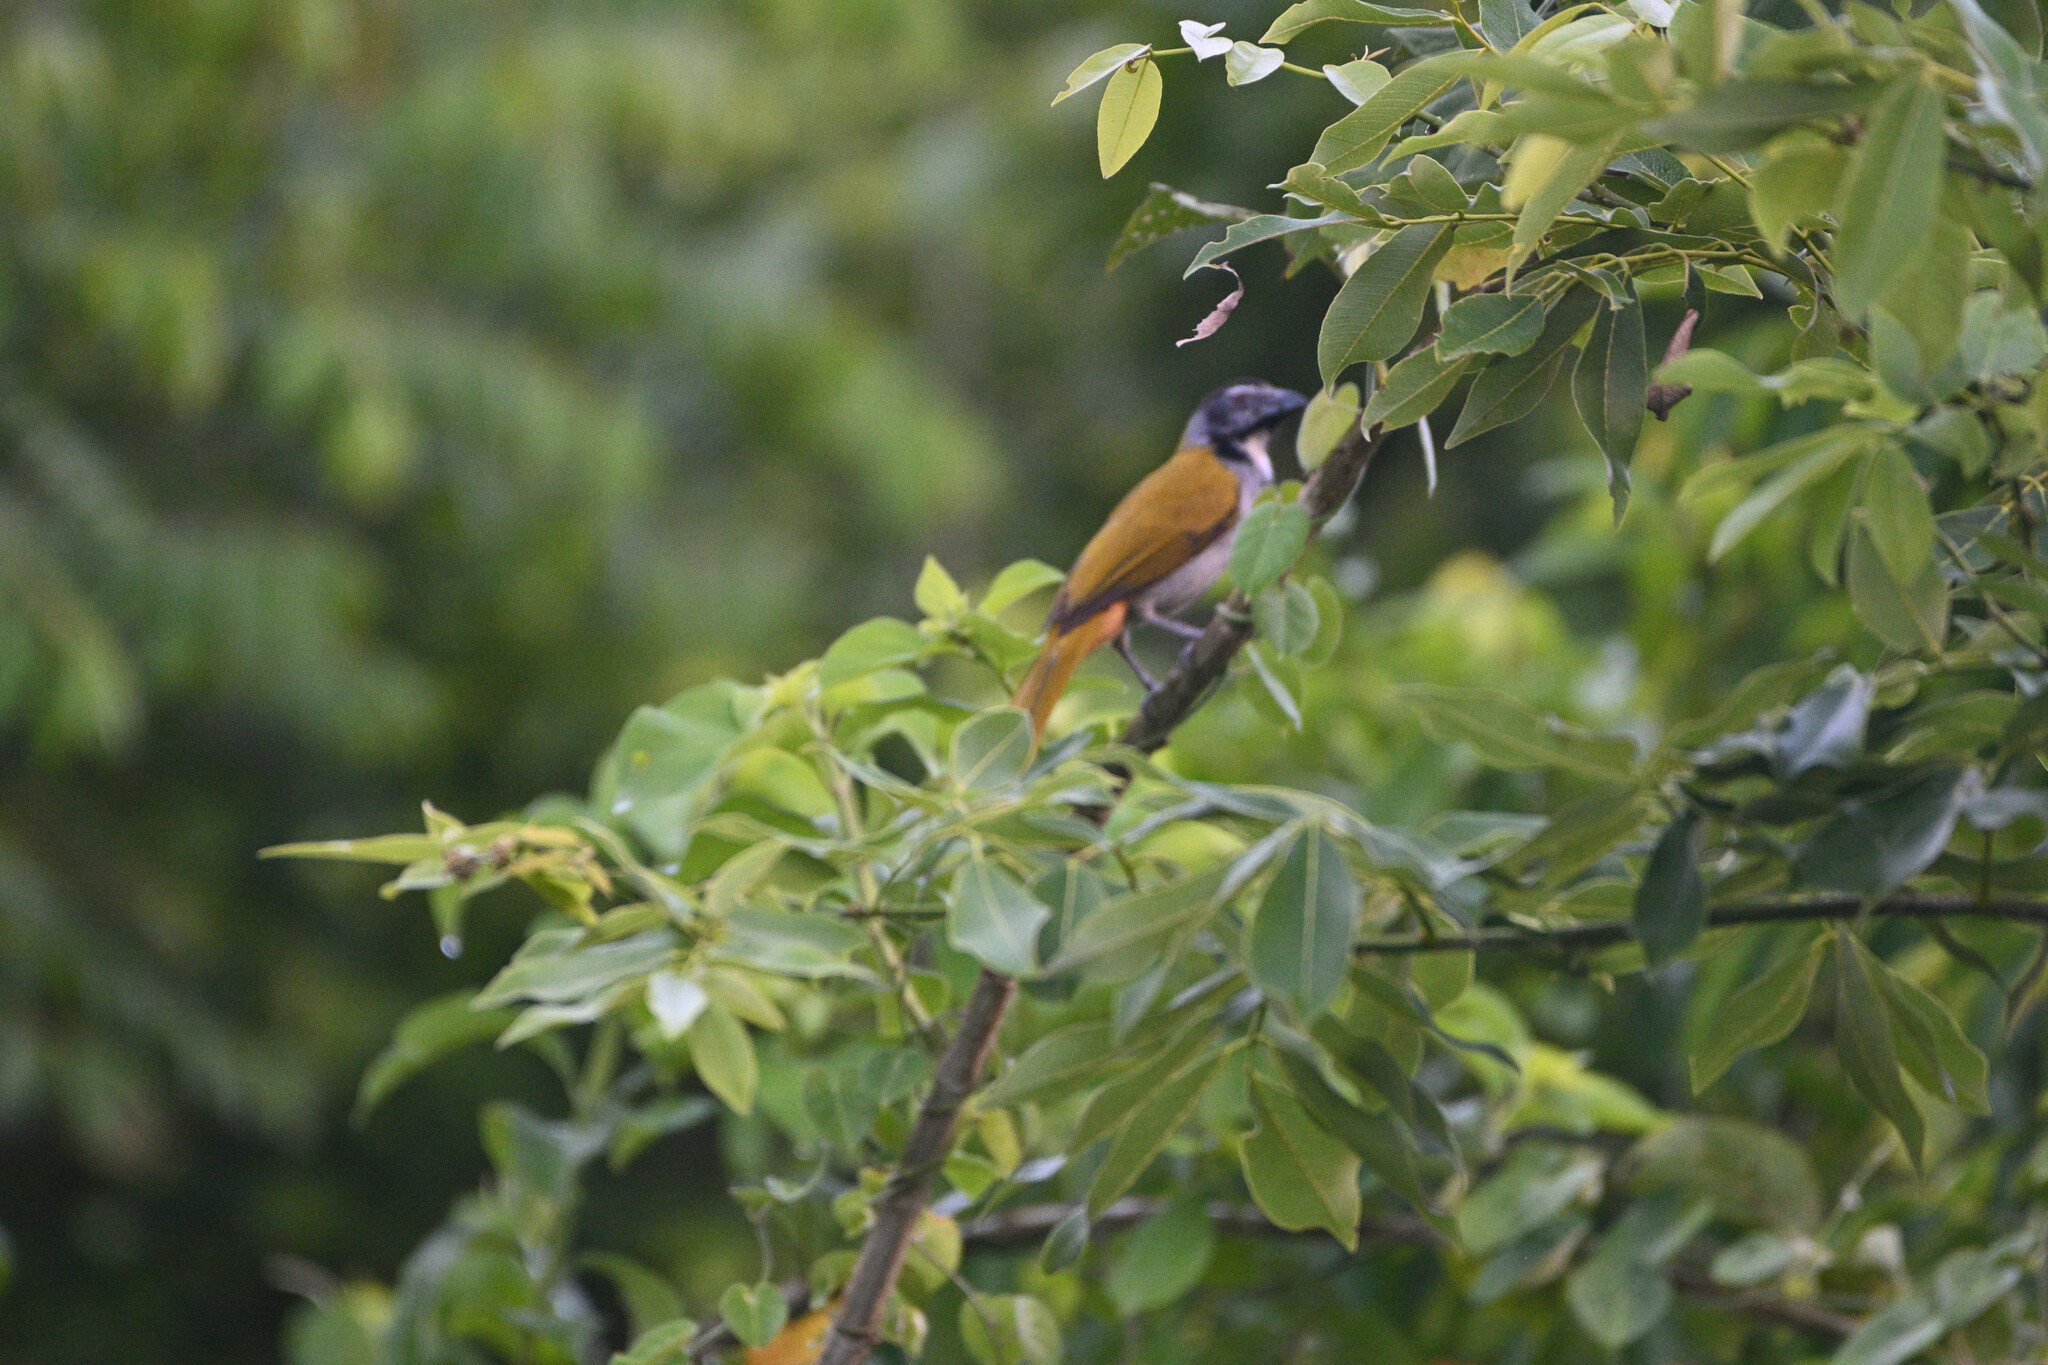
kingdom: Animalia
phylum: Chordata
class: Aves
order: Passeriformes
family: Thraupidae
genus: Saltator
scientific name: Saltator atriceps
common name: Black-headed saltator
